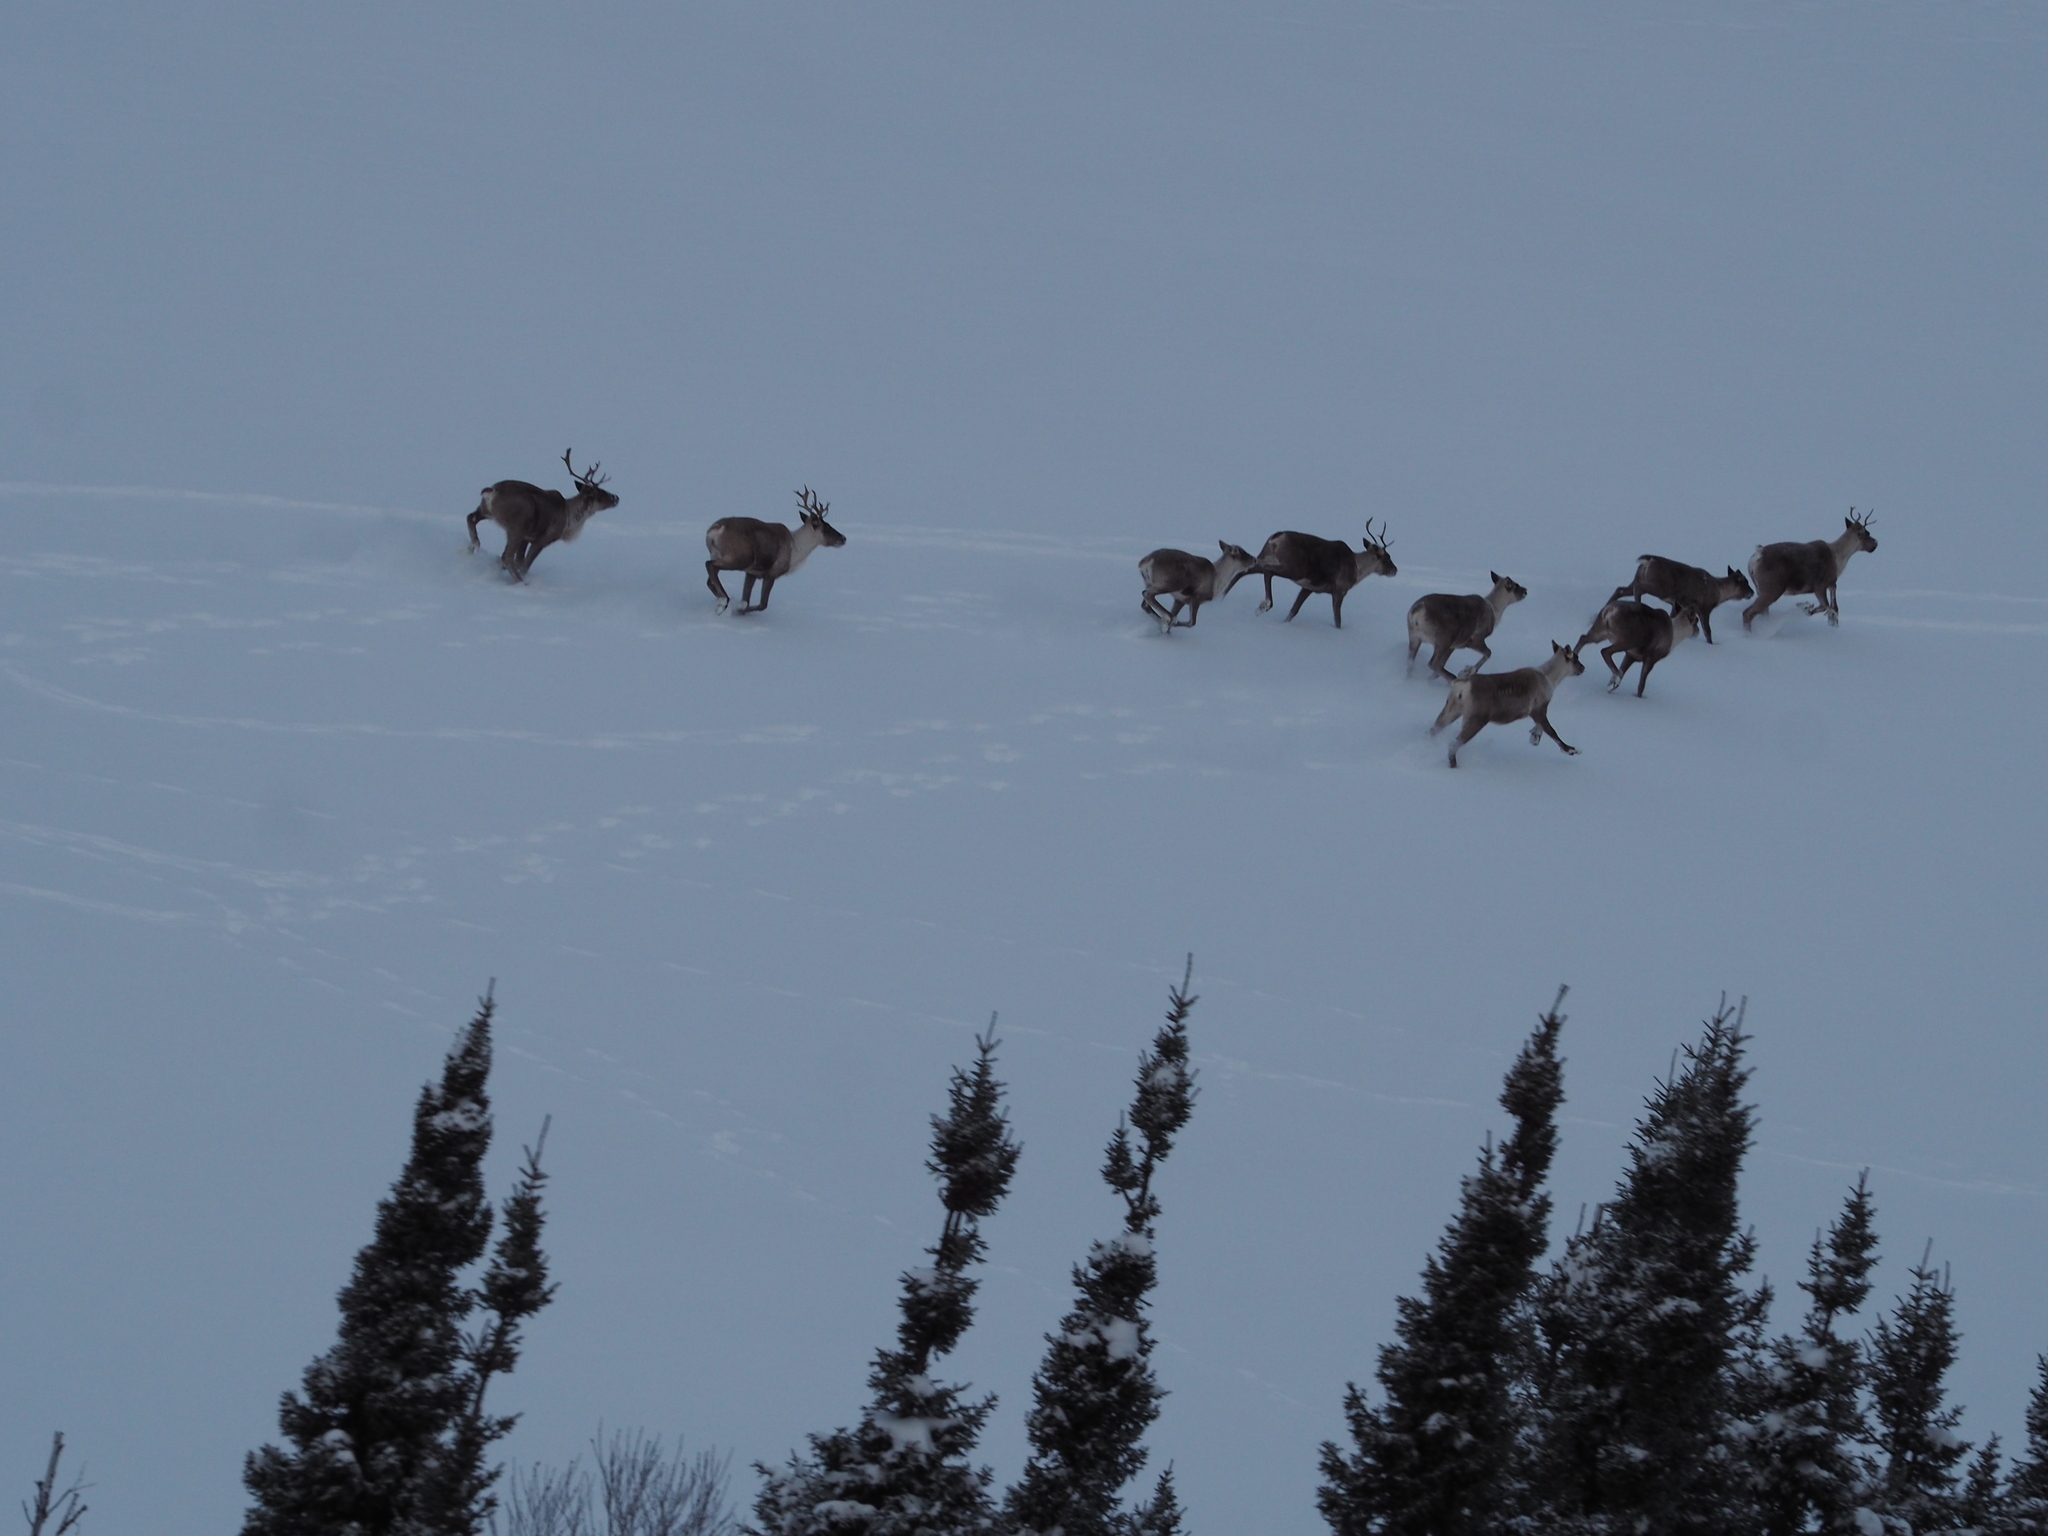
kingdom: Animalia
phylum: Chordata
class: Mammalia
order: Artiodactyla
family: Cervidae
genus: Rangifer
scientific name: Rangifer tarandus
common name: Reindeer
